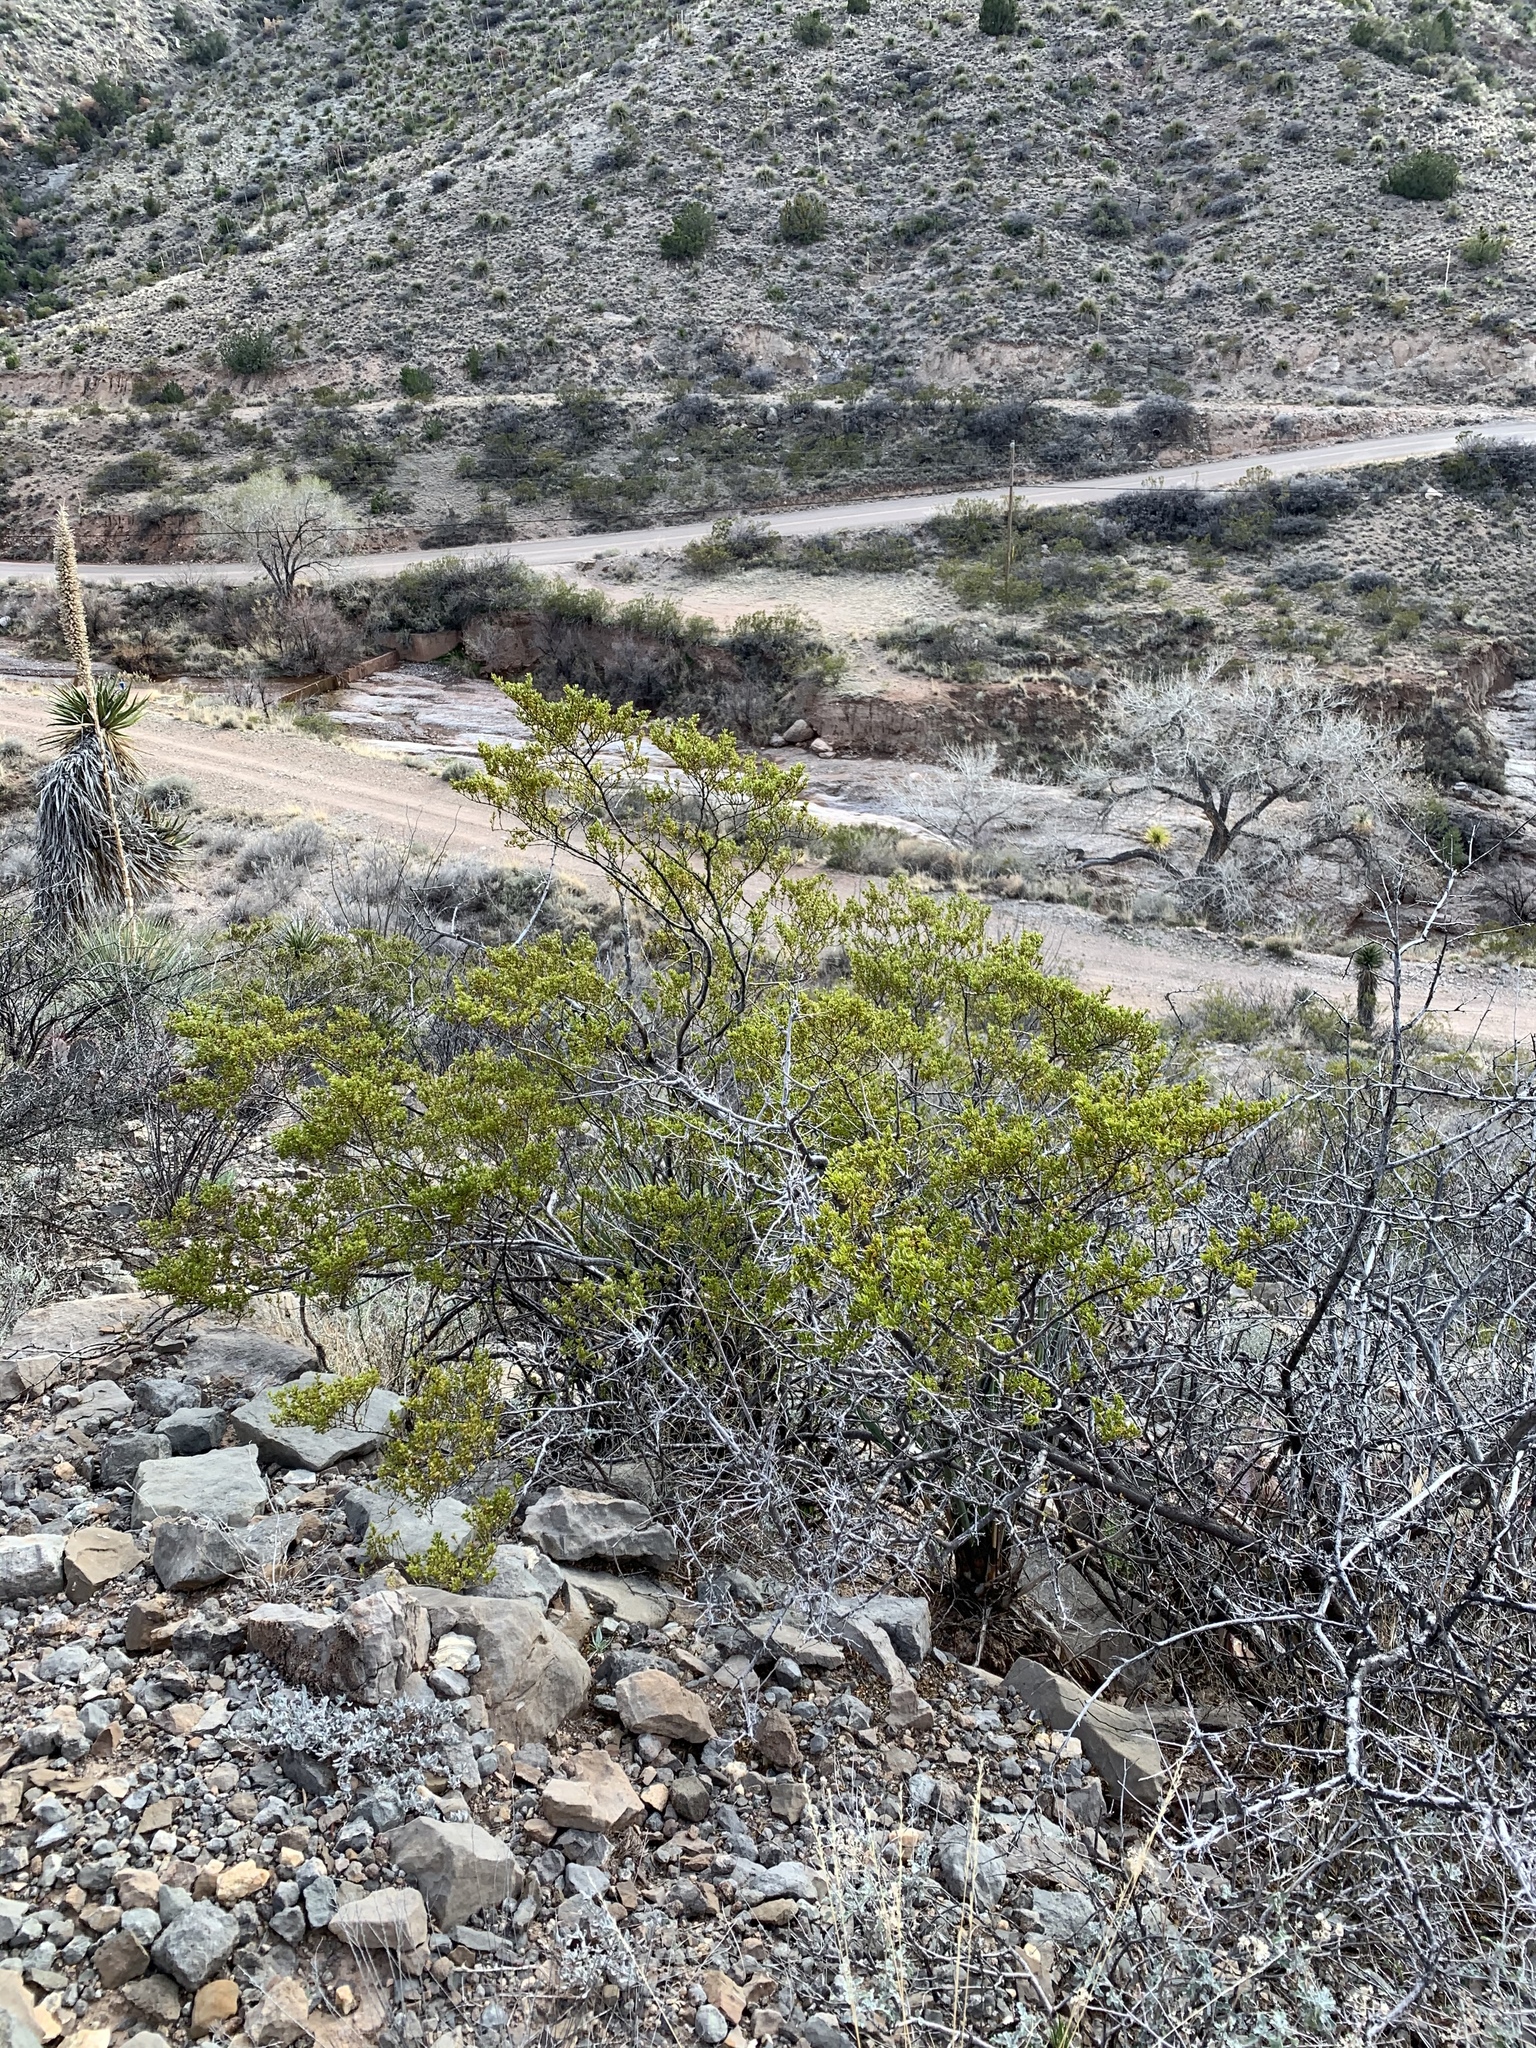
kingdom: Plantae
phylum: Tracheophyta
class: Magnoliopsida
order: Zygophyllales
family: Zygophyllaceae
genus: Larrea
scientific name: Larrea tridentata
